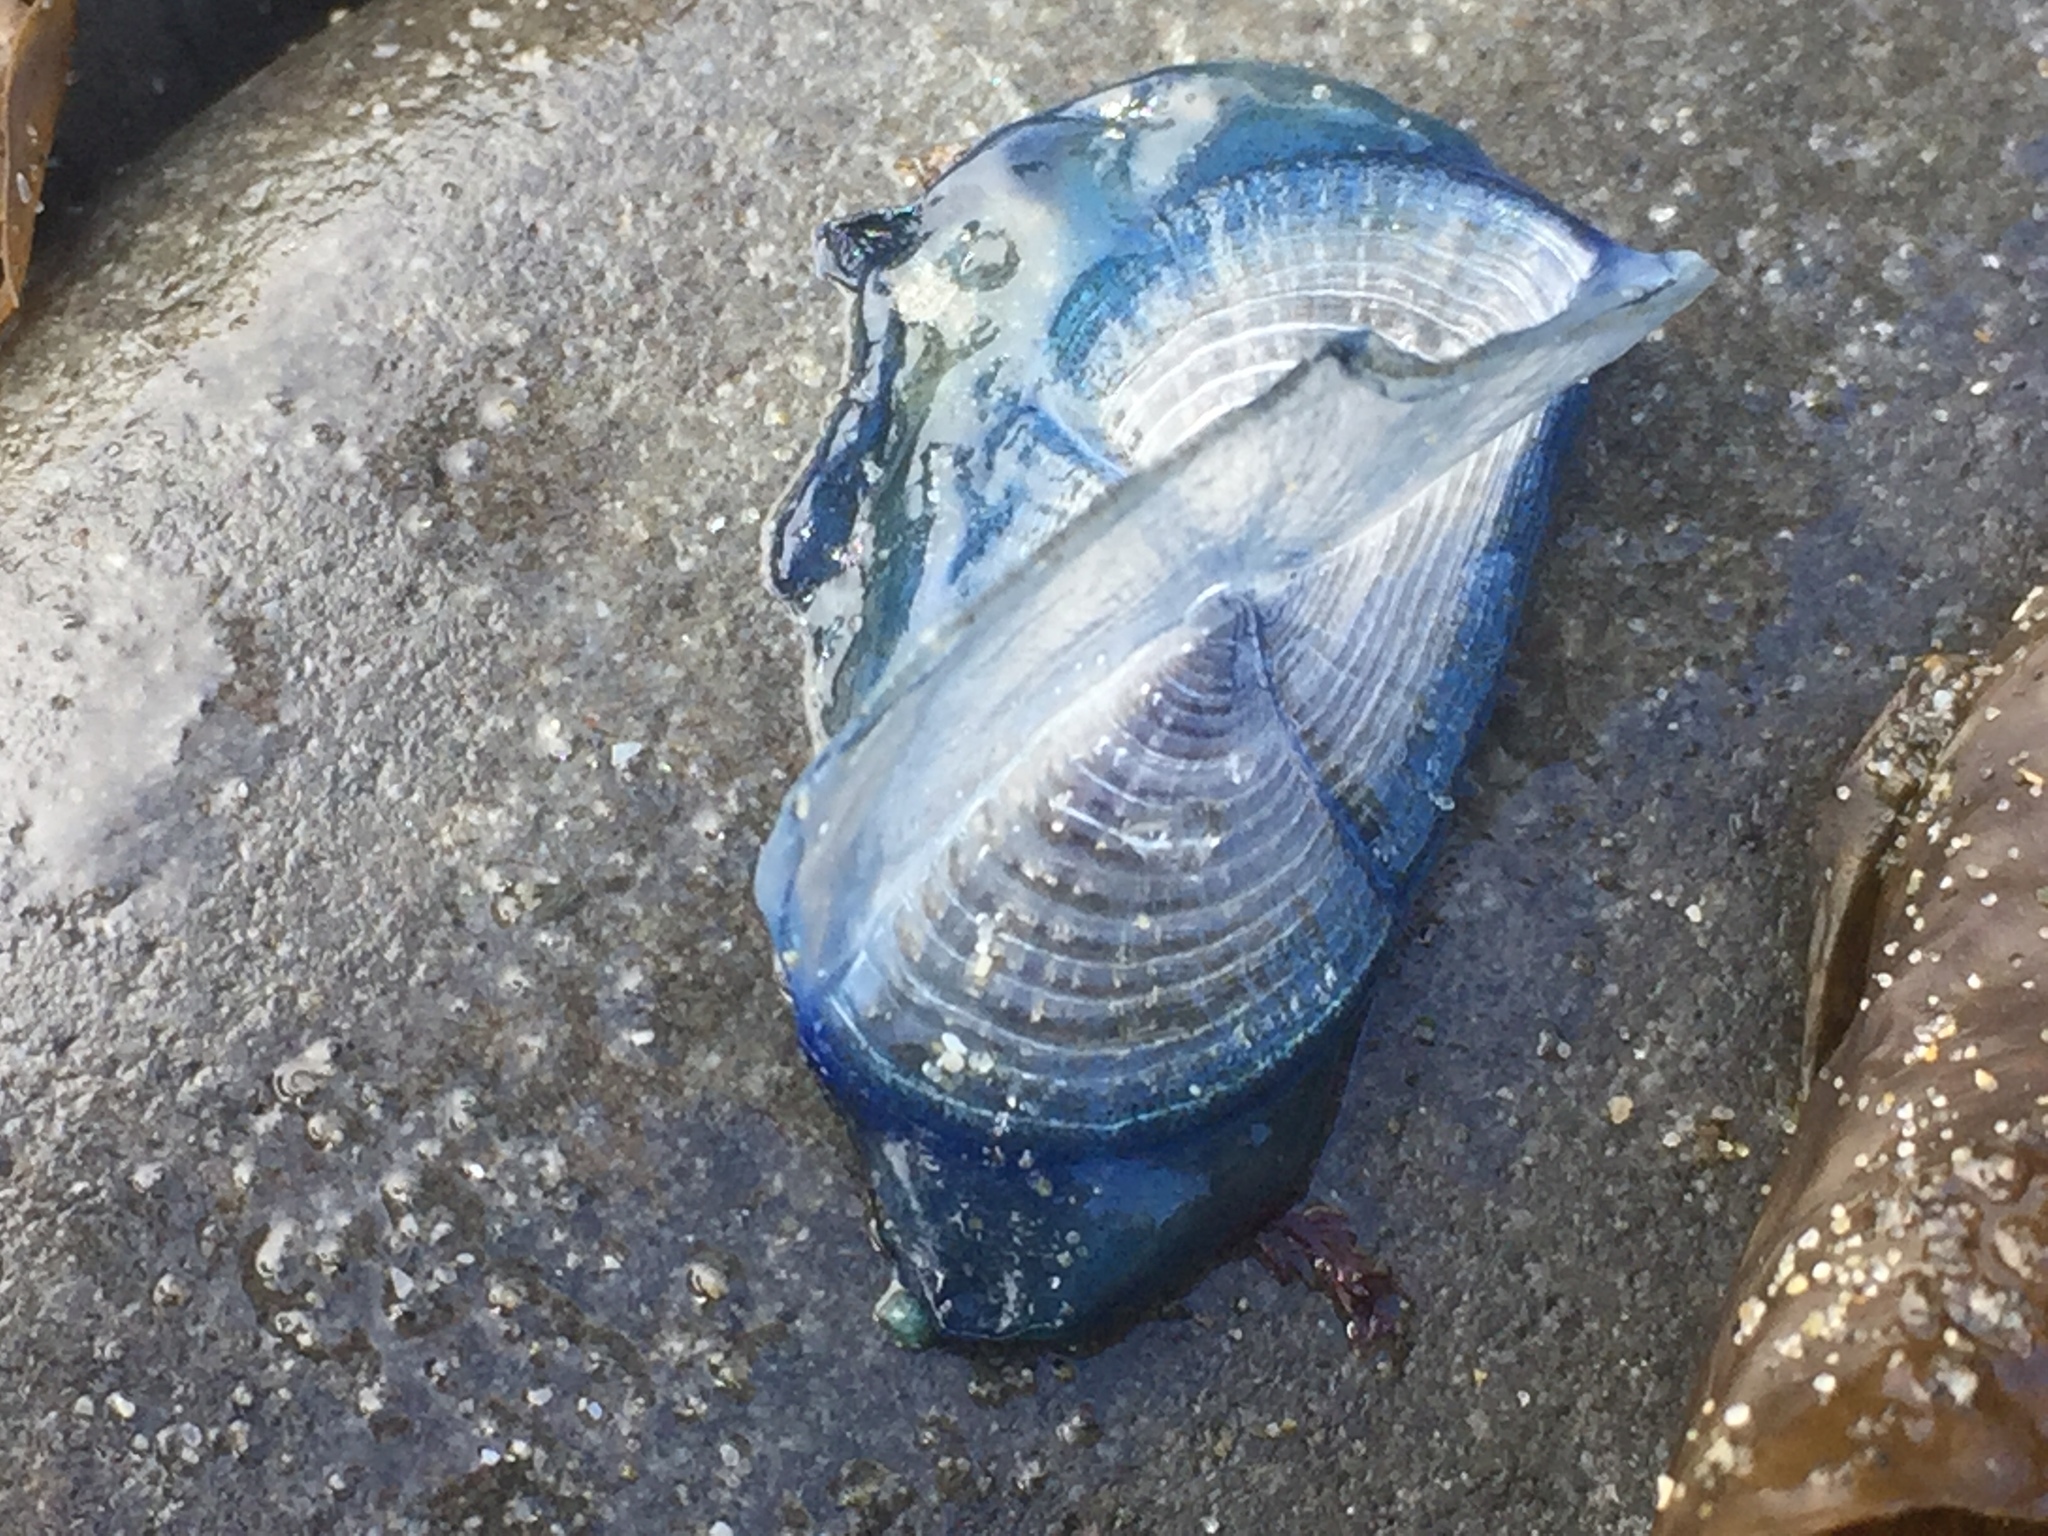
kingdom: Animalia
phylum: Cnidaria
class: Hydrozoa
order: Anthoathecata
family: Porpitidae
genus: Velella
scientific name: Velella velella
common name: By-the-wind-sailor
